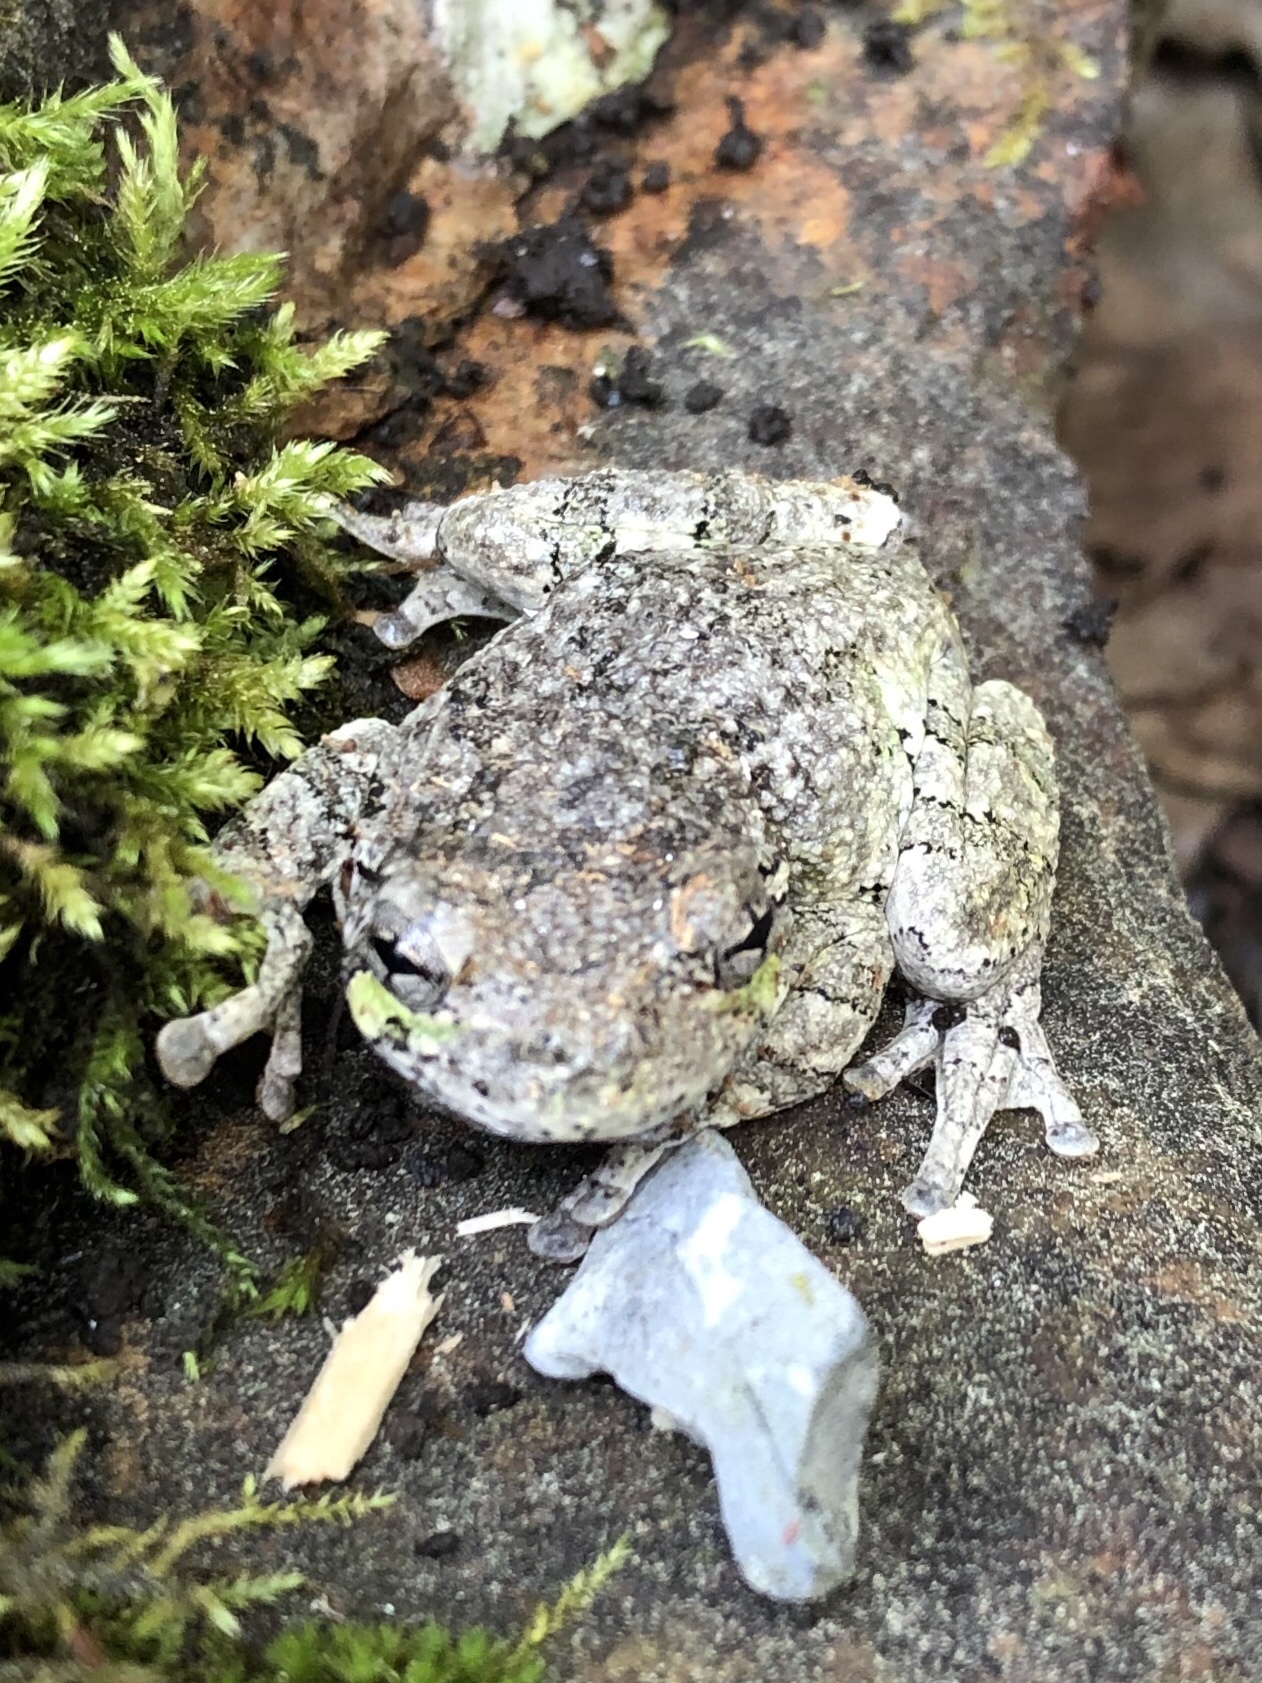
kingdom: Animalia
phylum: Chordata
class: Amphibia
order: Anura
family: Hylidae
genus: Dryophytes
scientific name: Dryophytes versicolor
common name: Gray treefrog
